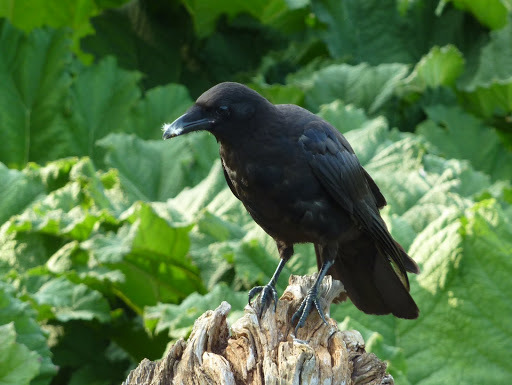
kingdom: Animalia
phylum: Chordata
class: Aves
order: Passeriformes
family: Corvidae
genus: Corvus
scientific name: Corvus brachyrhynchos
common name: American crow
